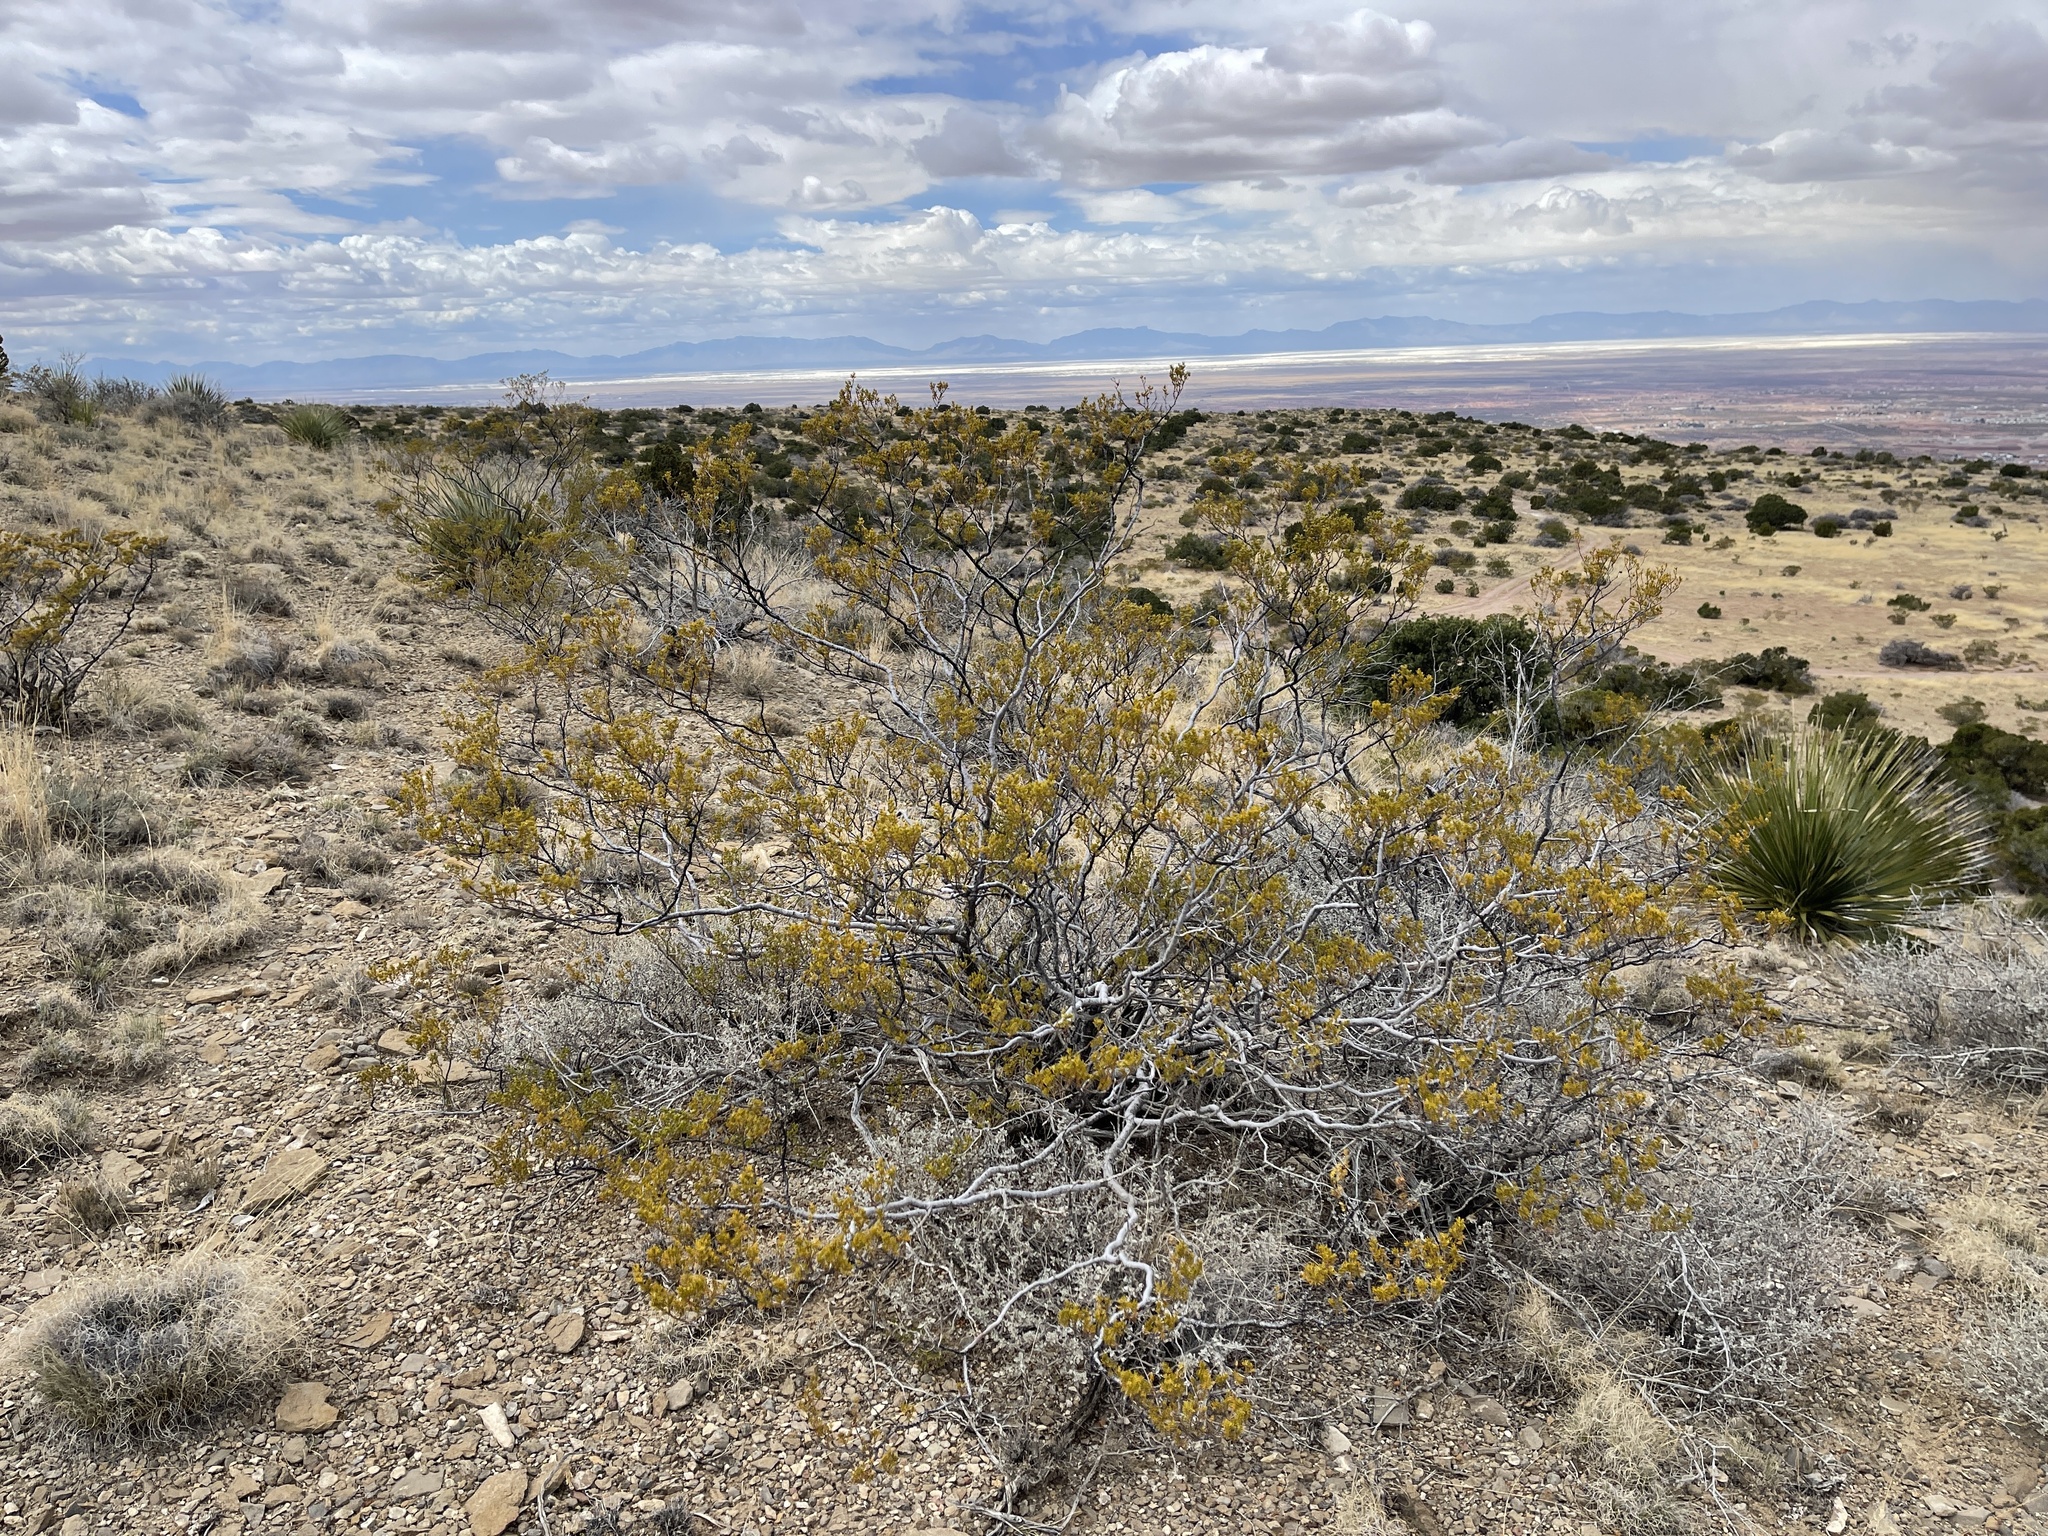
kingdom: Plantae
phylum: Tracheophyta
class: Magnoliopsida
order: Zygophyllales
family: Zygophyllaceae
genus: Larrea
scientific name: Larrea tridentata
